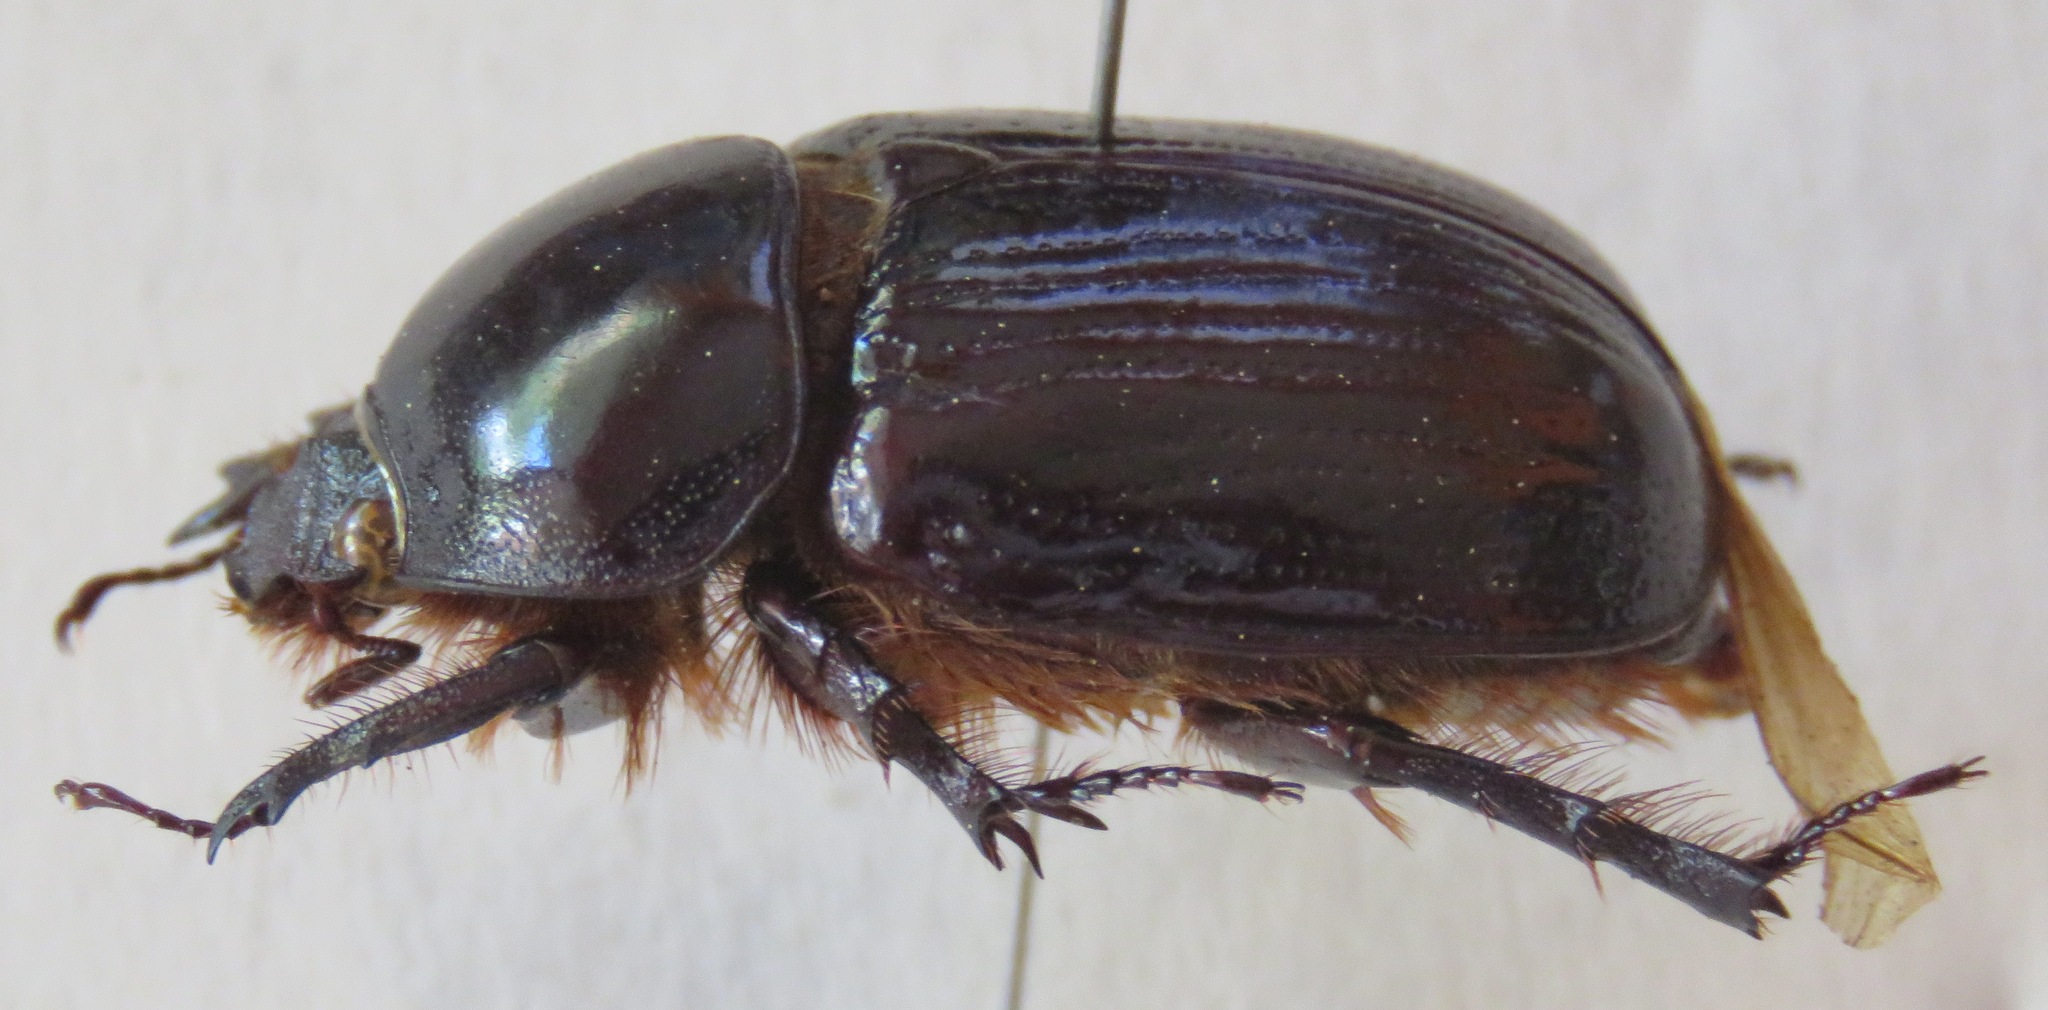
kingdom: Animalia
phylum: Arthropoda
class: Insecta
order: Coleoptera
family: Scarabaeidae
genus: Xyloryctes
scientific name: Xyloryctes lobicollis
